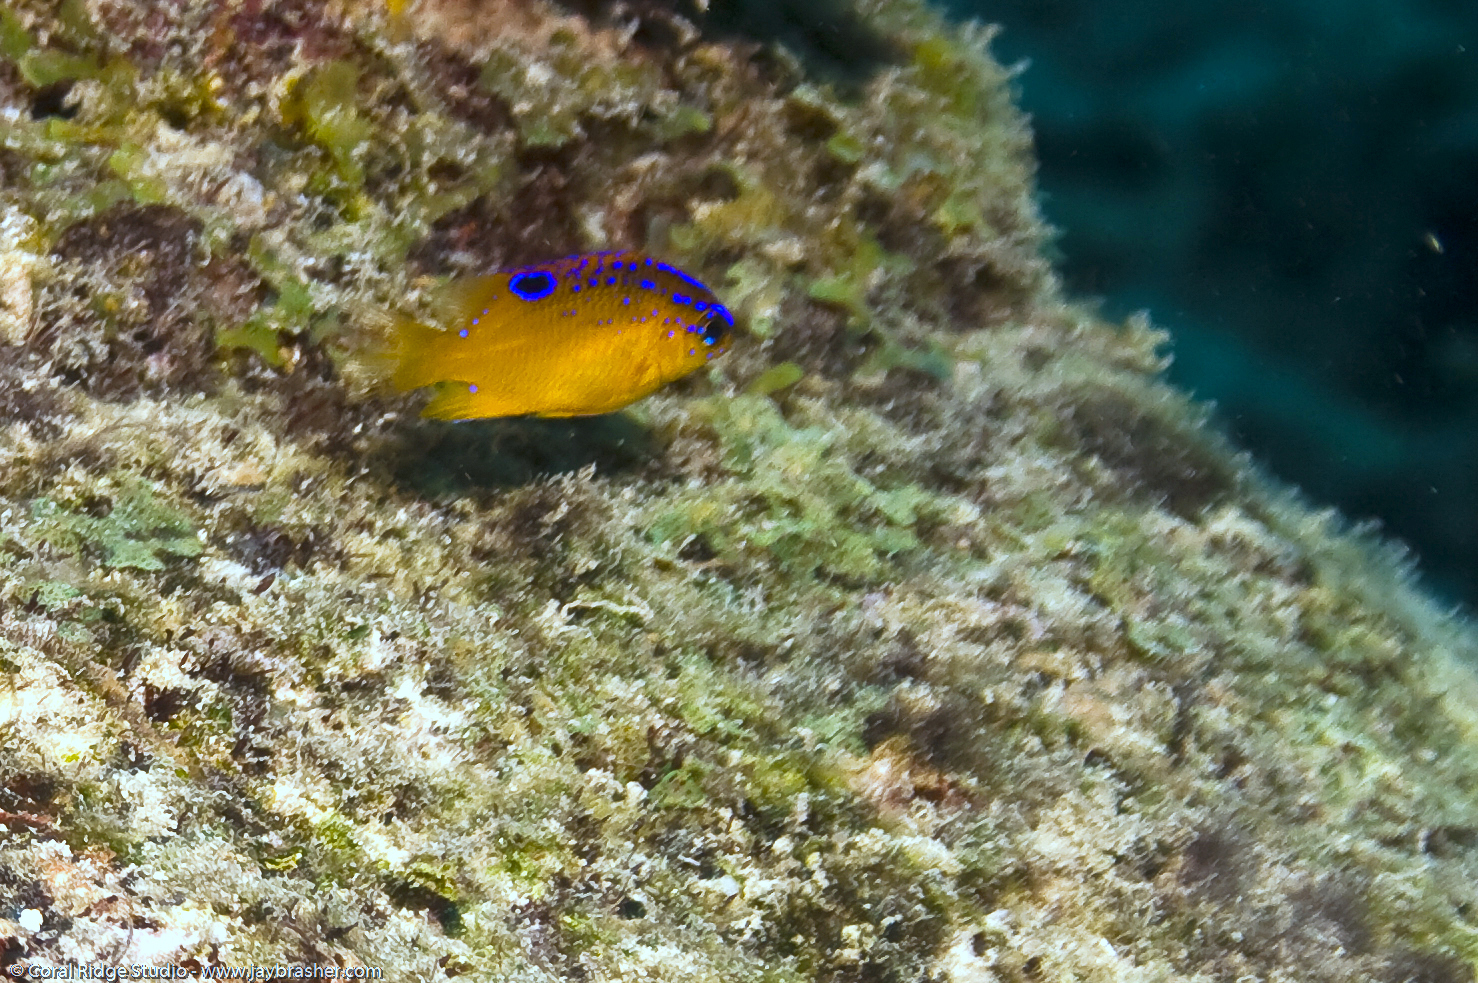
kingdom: Animalia
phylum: Chordata
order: Perciformes
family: Pomacentridae
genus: Stegastes
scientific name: Stegastes diencaeus
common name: Longfin damselfish
